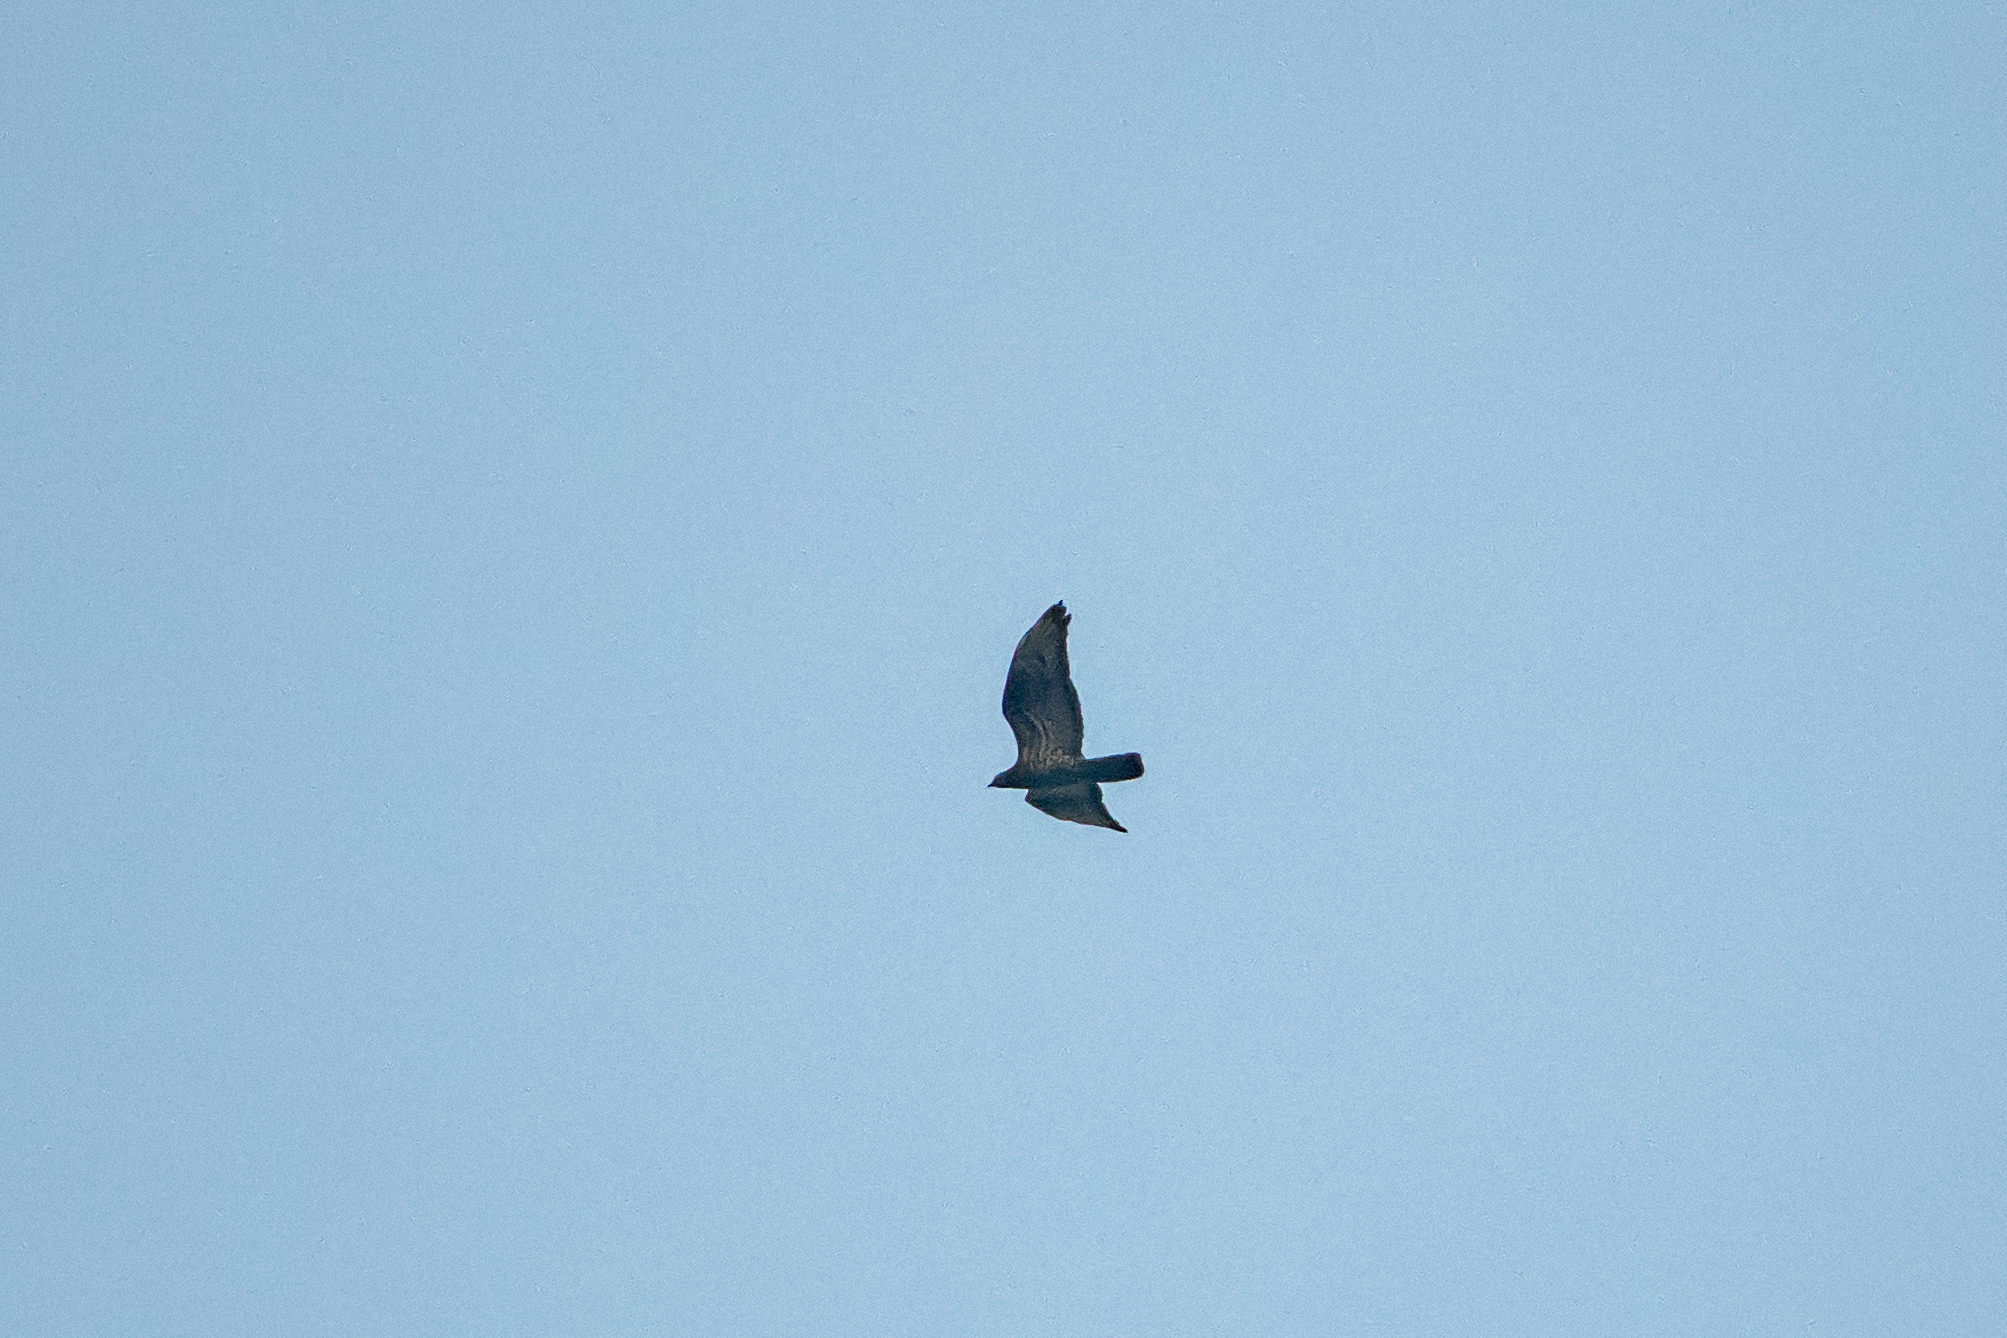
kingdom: Animalia
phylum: Chordata
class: Aves
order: Accipitriformes
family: Accipitridae
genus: Pernis
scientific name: Pernis apivorus
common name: European honey buzzard
